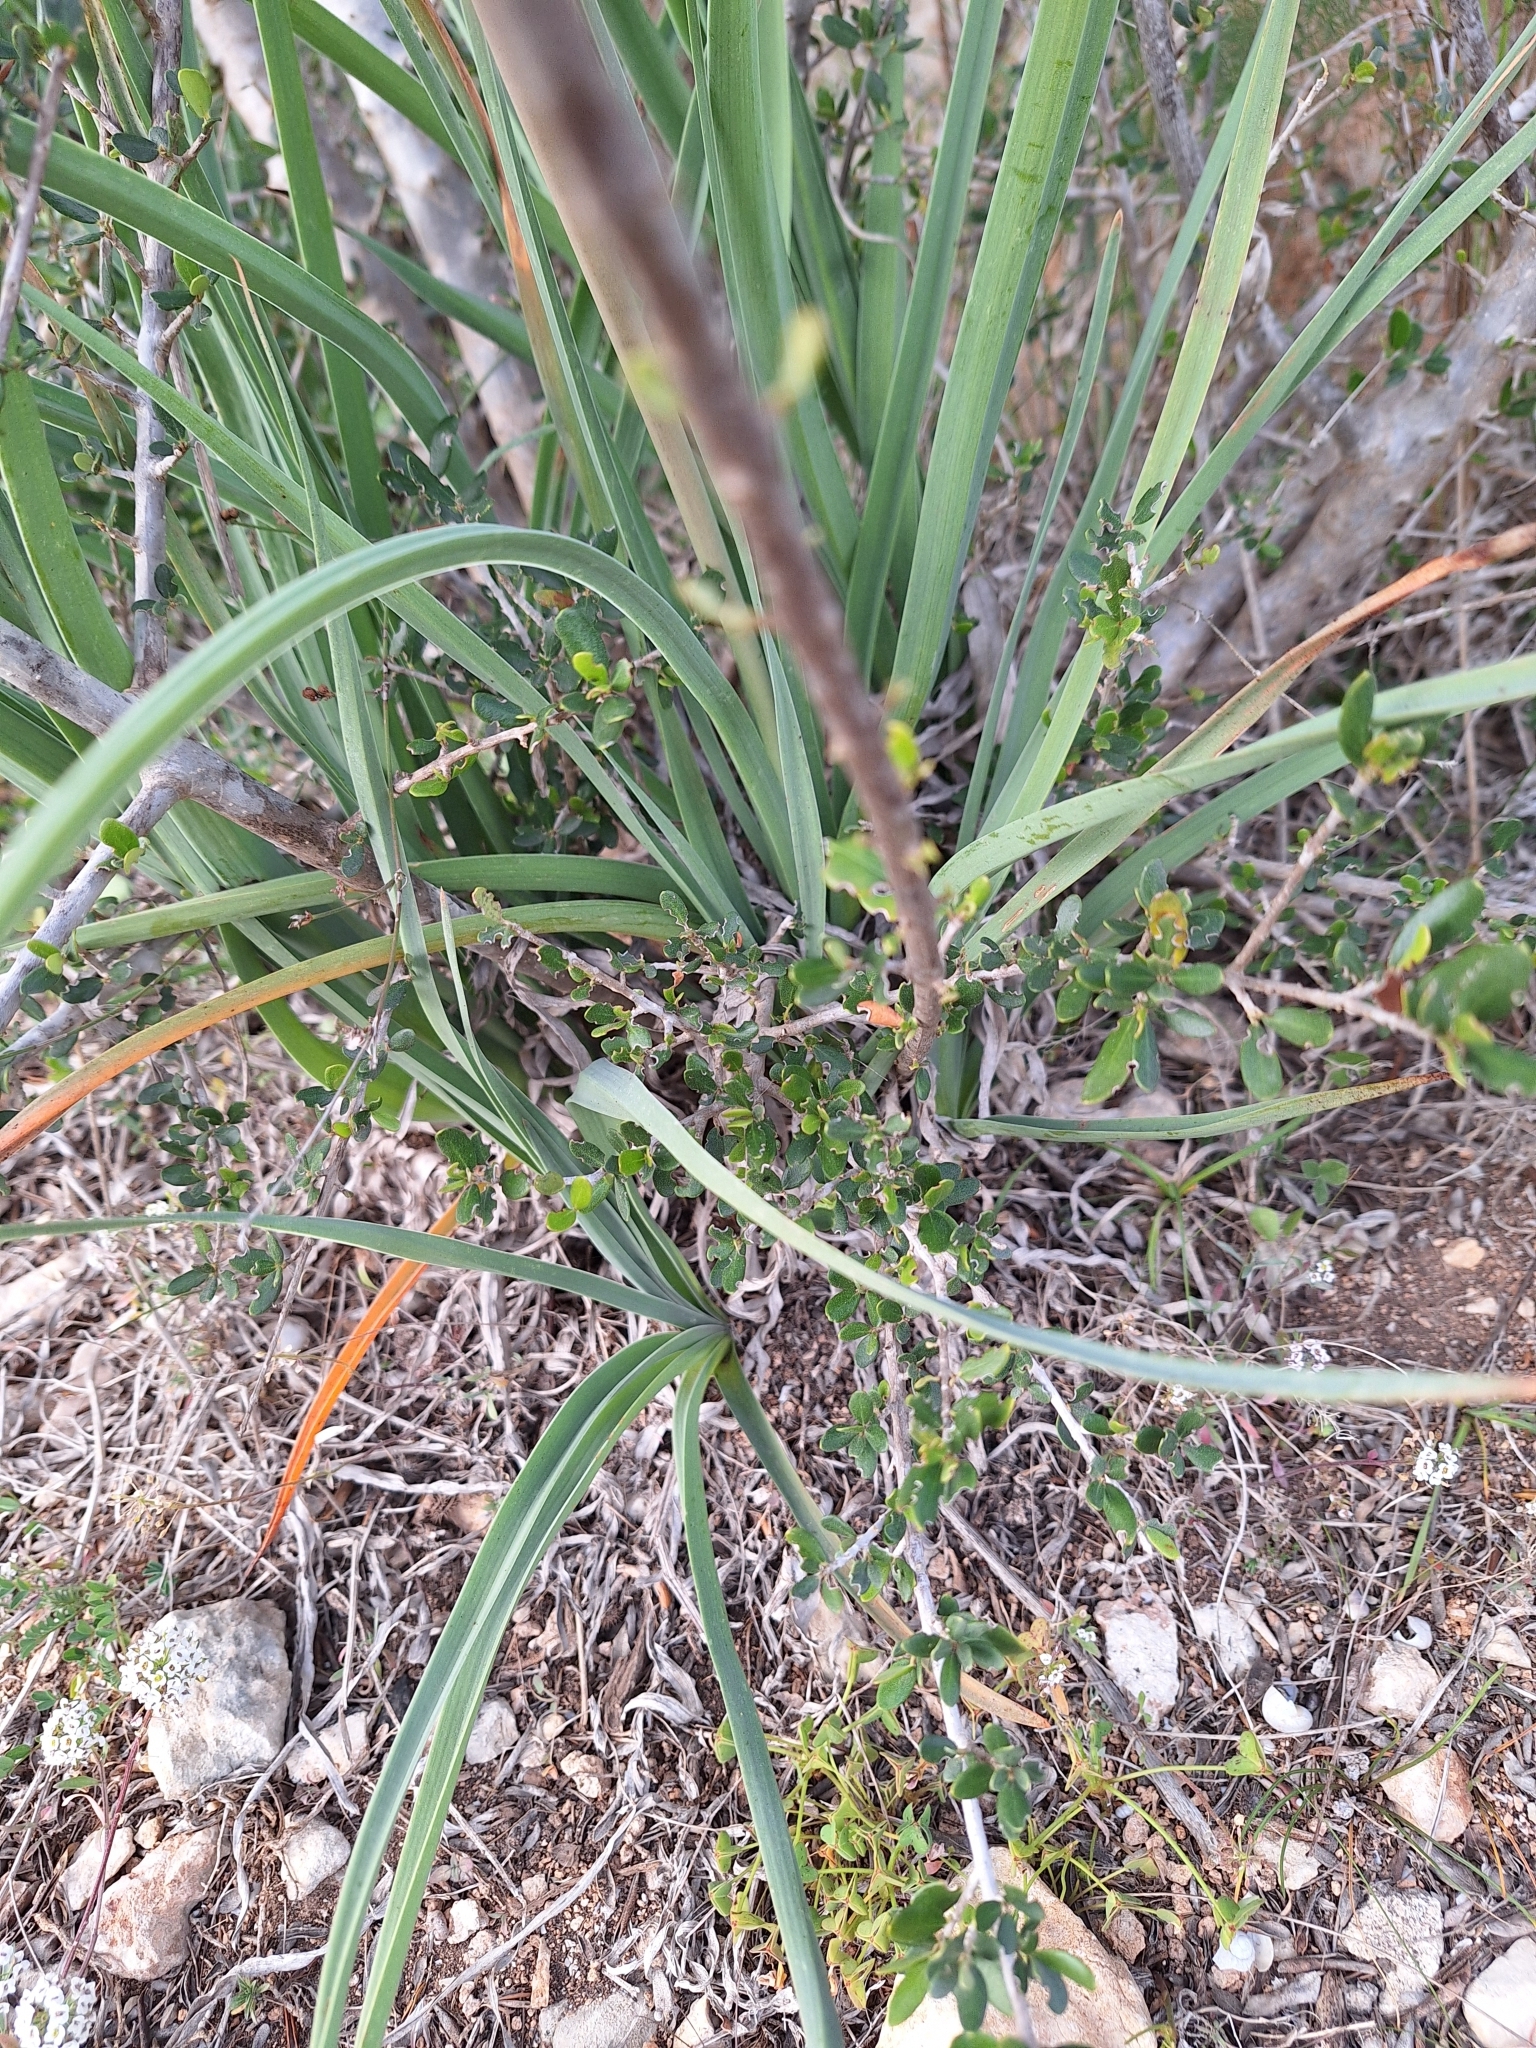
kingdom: Plantae
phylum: Tracheophyta
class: Liliopsida
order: Asparagales
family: Asphodelaceae
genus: Asphodelus
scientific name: Asphodelus ramosus
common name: Silverrod
